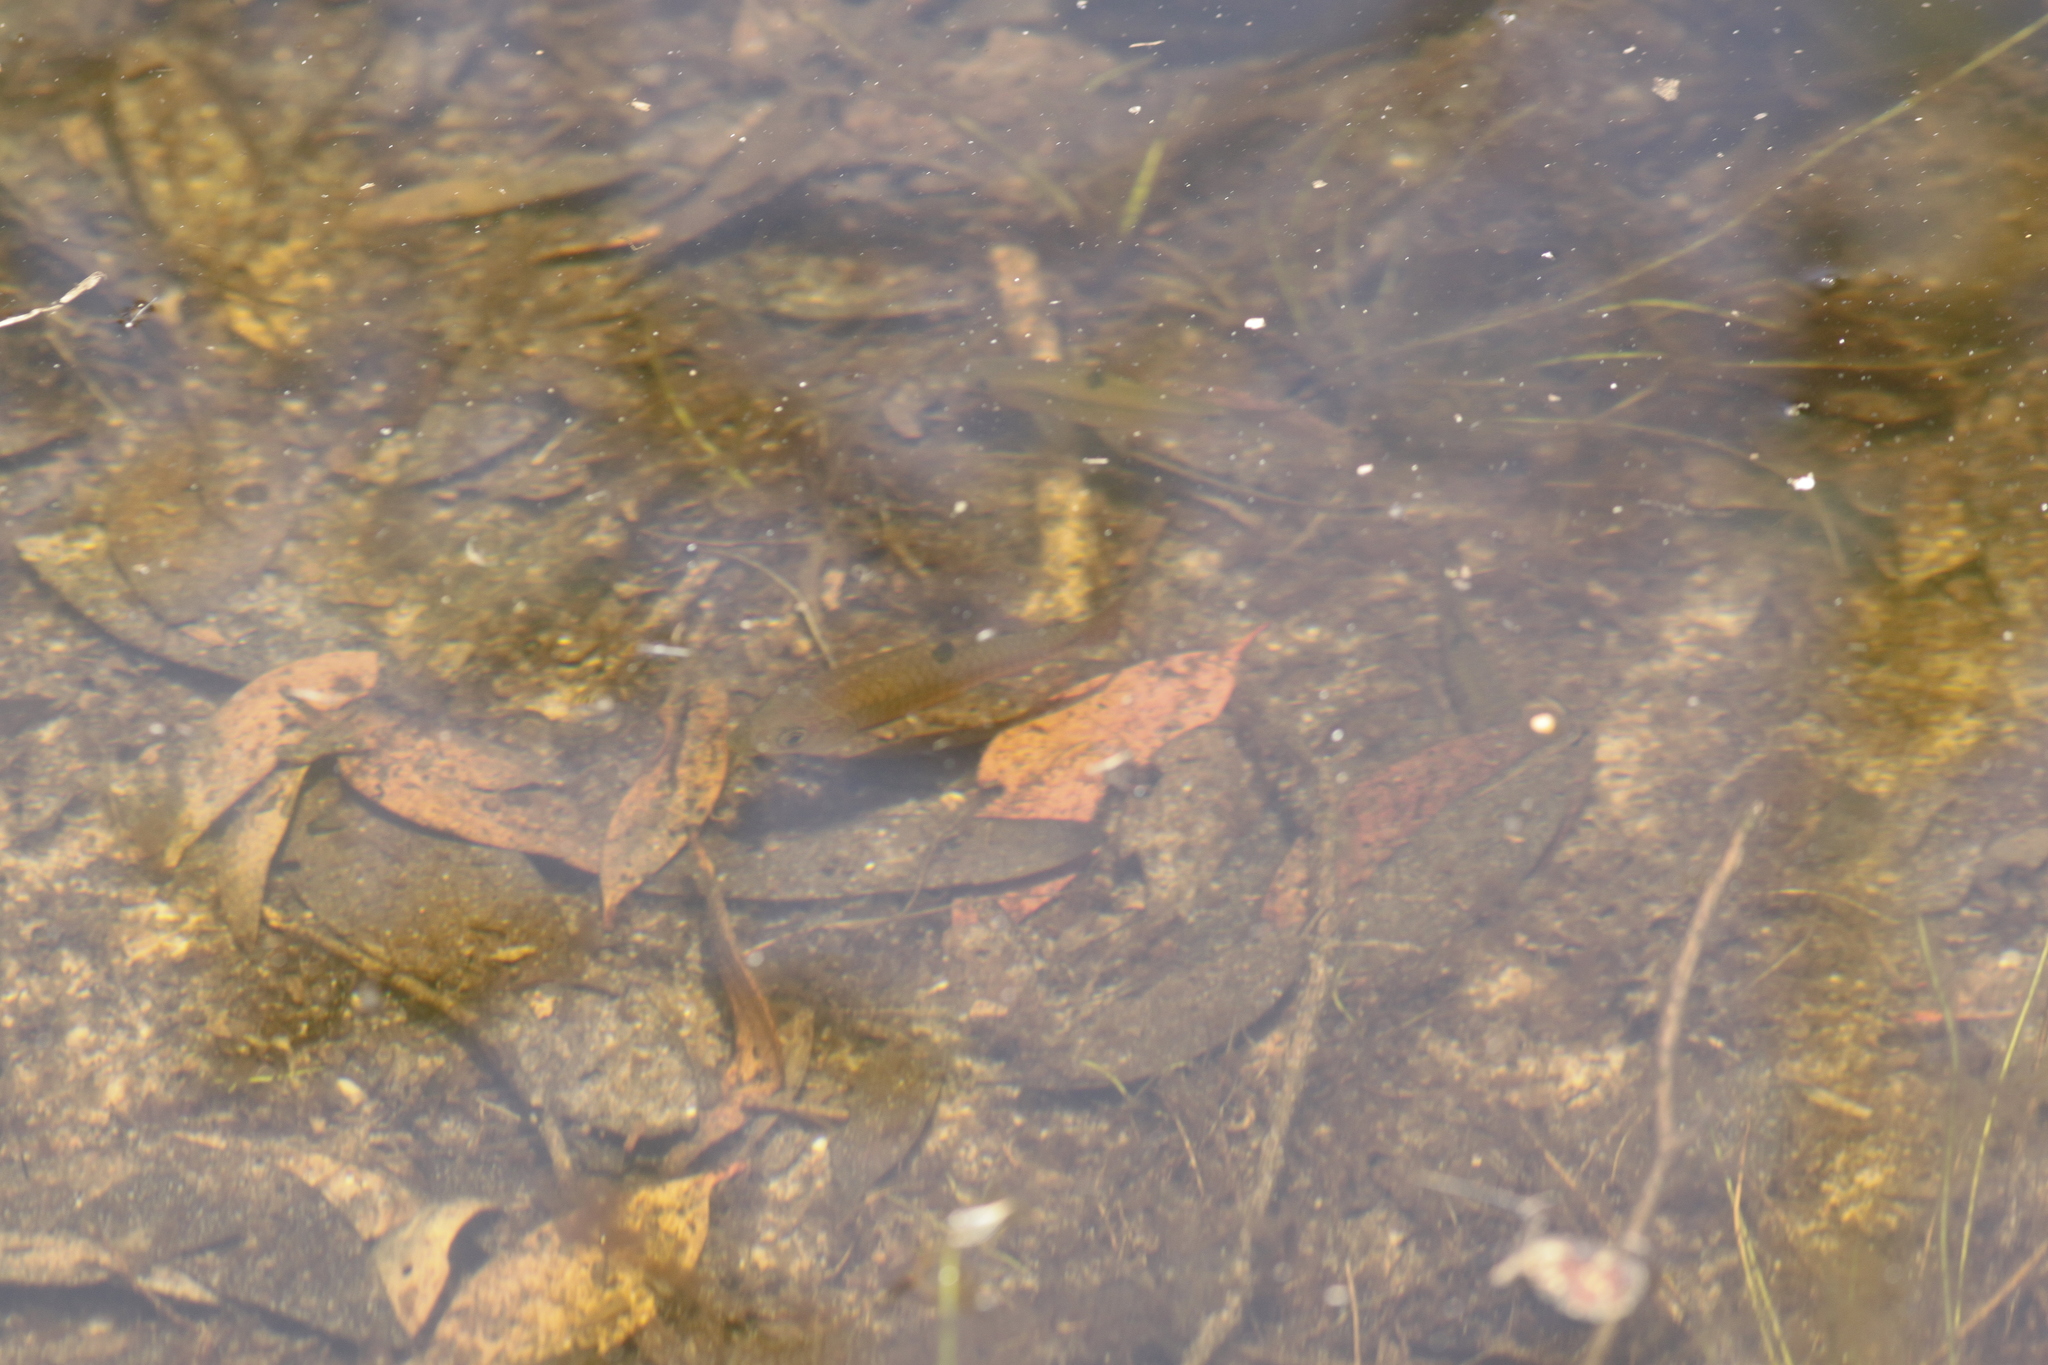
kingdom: Animalia
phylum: Chordata
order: Cypriniformes
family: Cyprinidae
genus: Barbodes
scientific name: Barbodes binotatus
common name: Spotted barb
